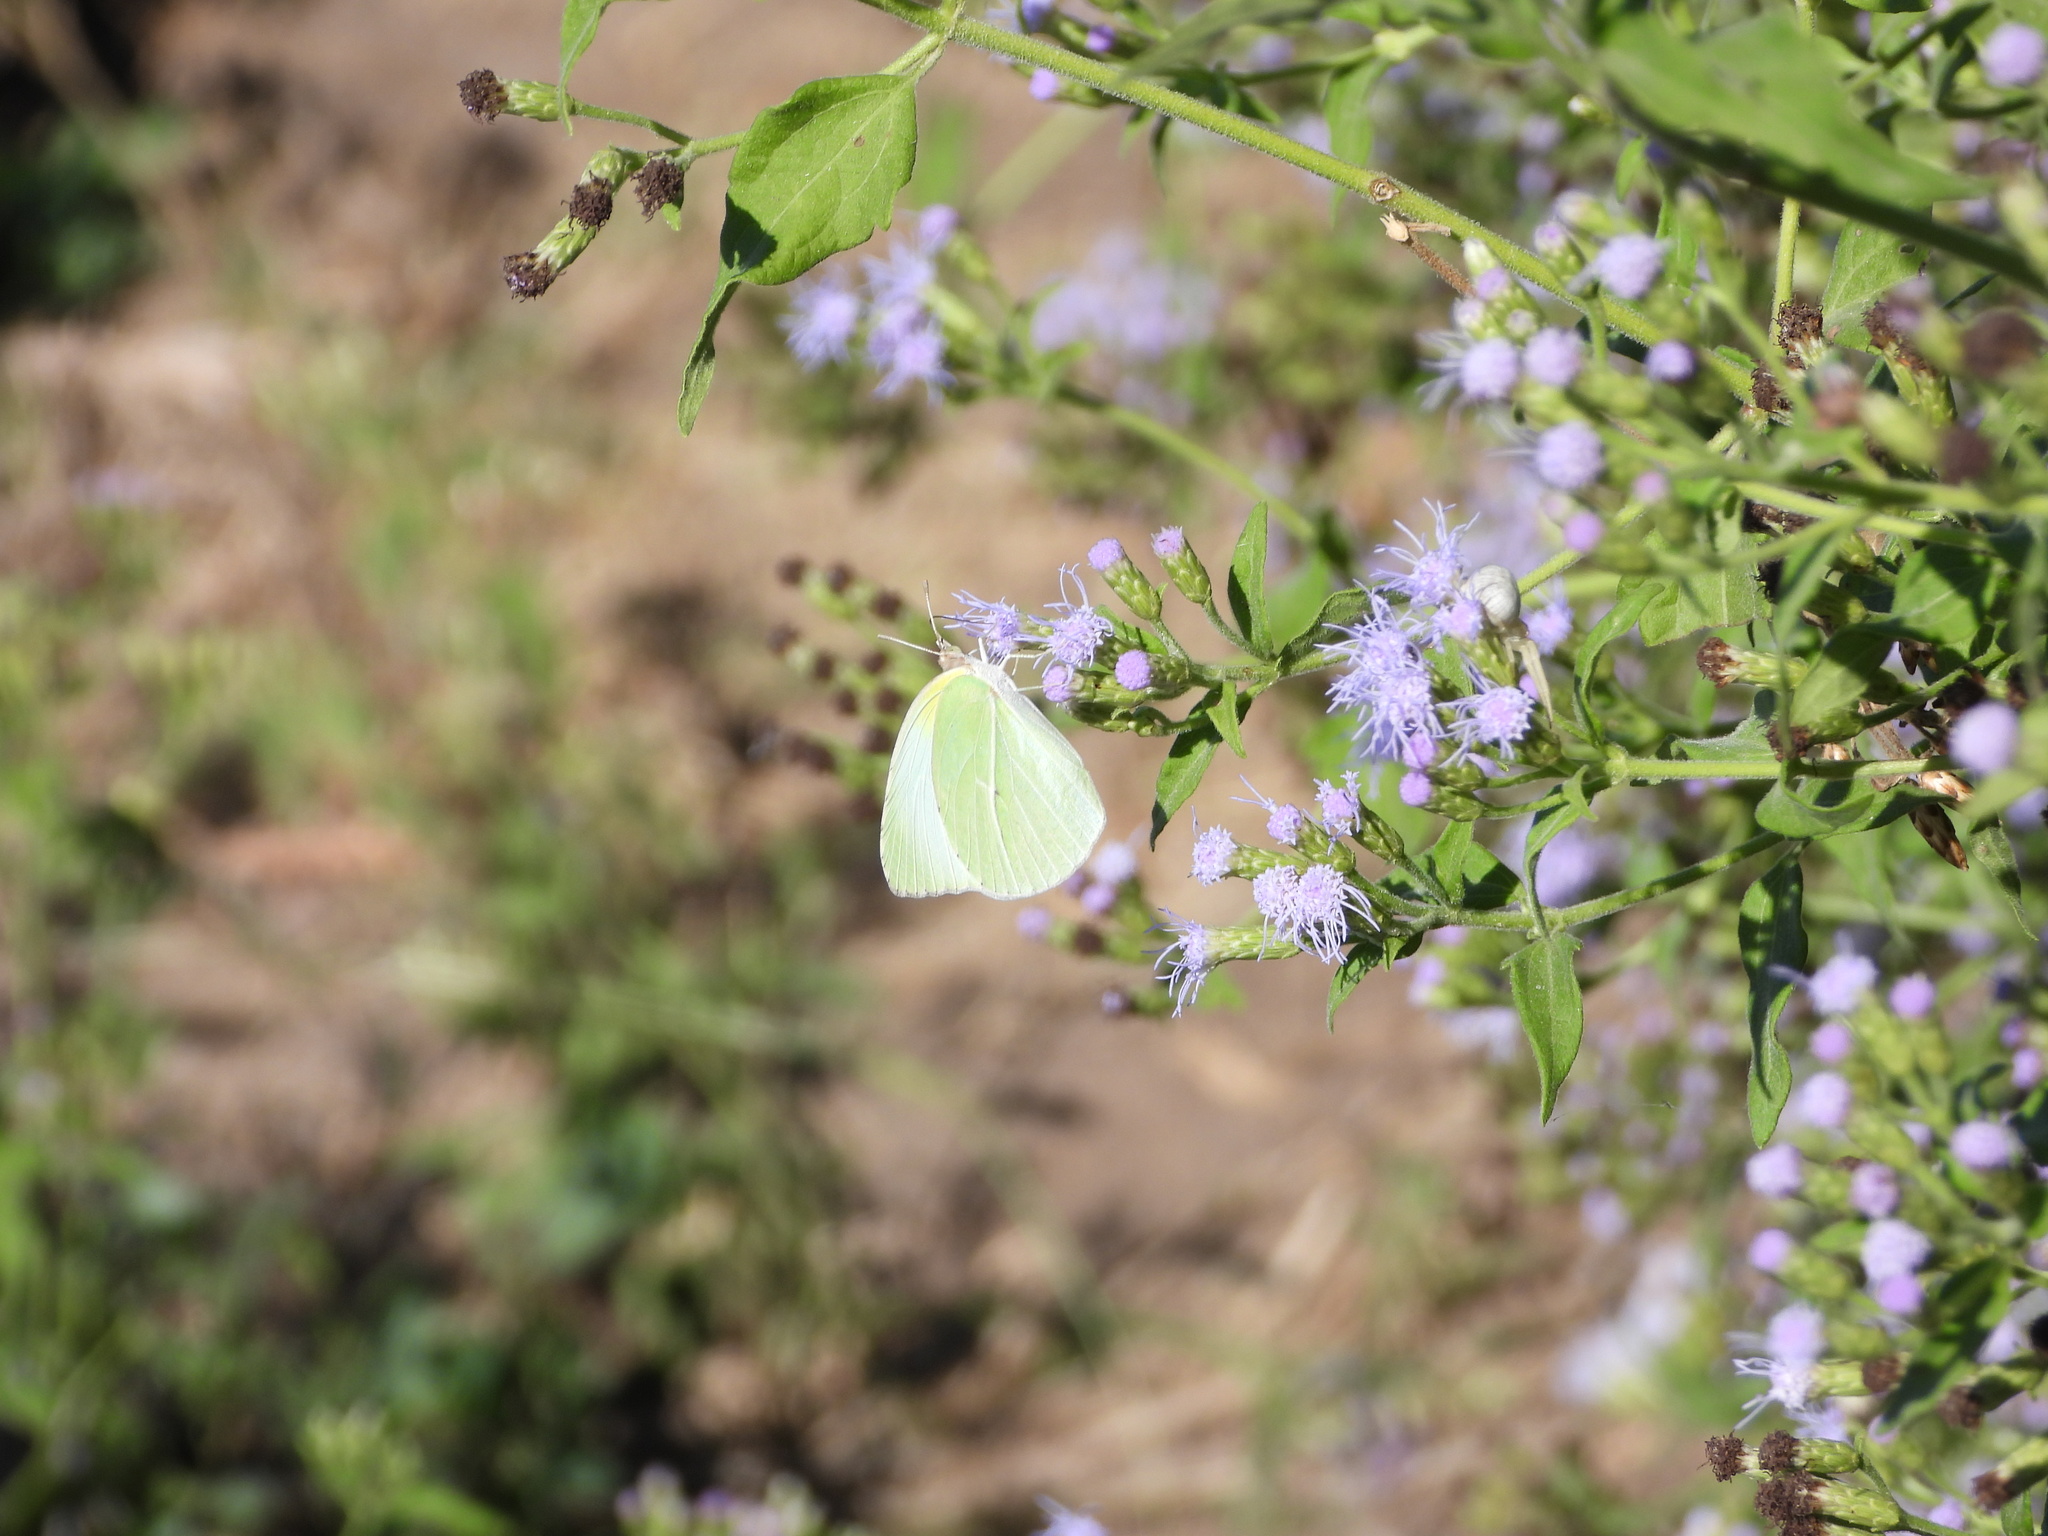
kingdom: Animalia
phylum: Arthropoda
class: Insecta
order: Lepidoptera
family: Pieridae
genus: Kricogonia
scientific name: Kricogonia lyside
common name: Guayacan sulphur,
